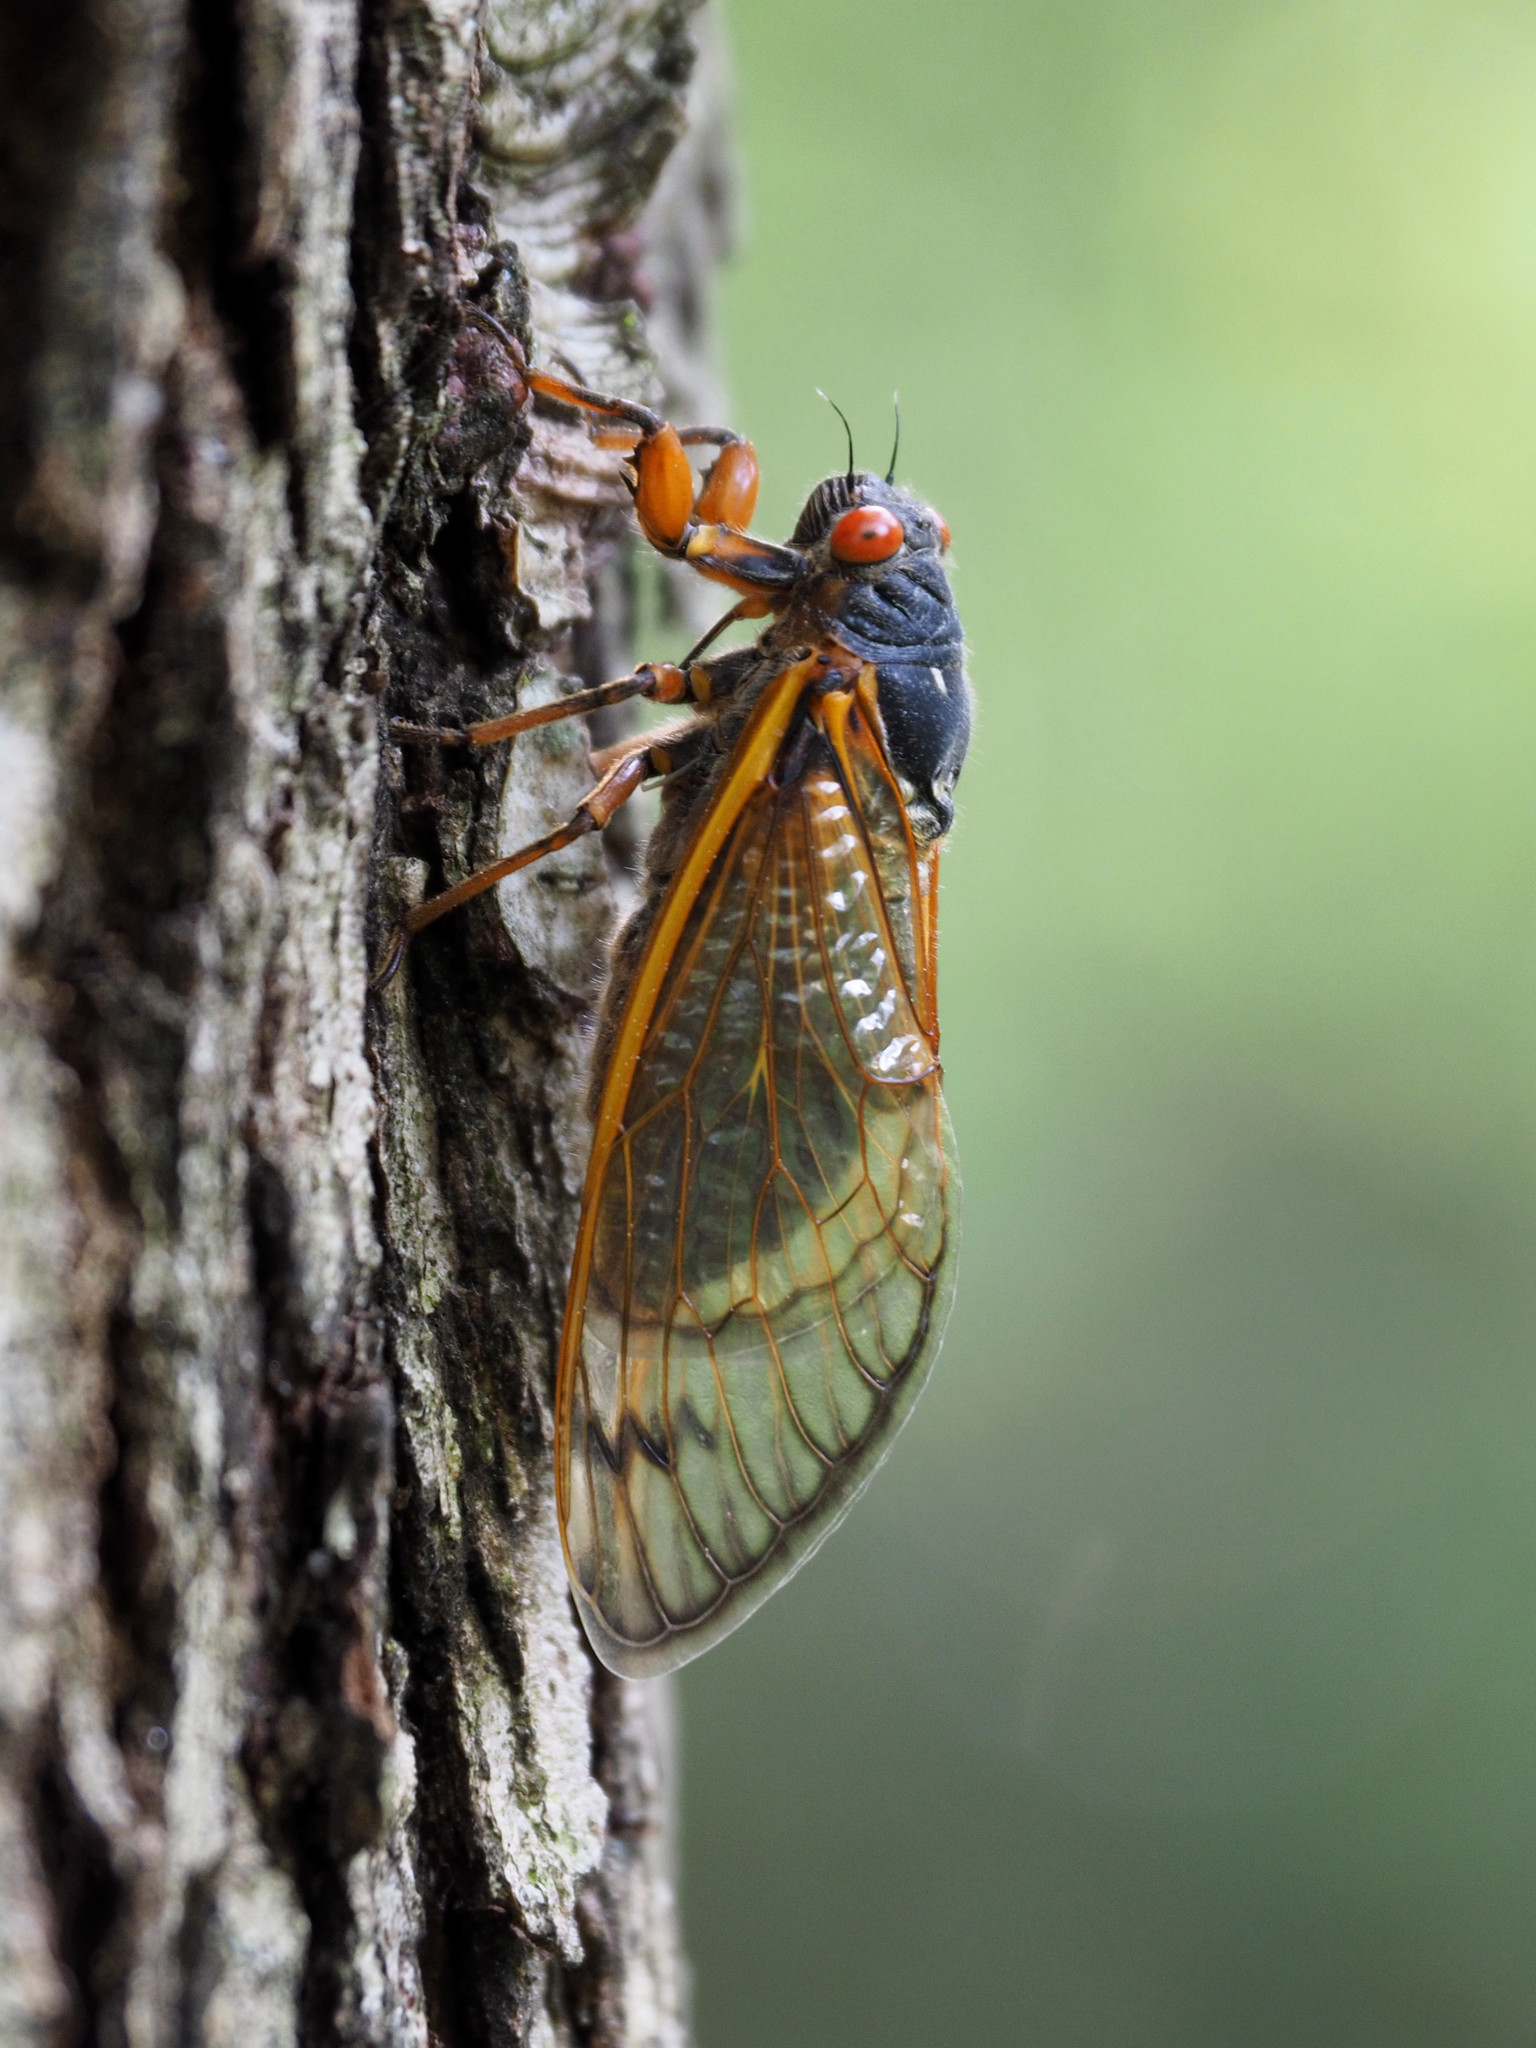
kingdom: Animalia
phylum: Arthropoda
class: Insecta
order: Hemiptera
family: Cicadidae
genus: Magicicada
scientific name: Magicicada septendecim
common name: Periodical cicada
